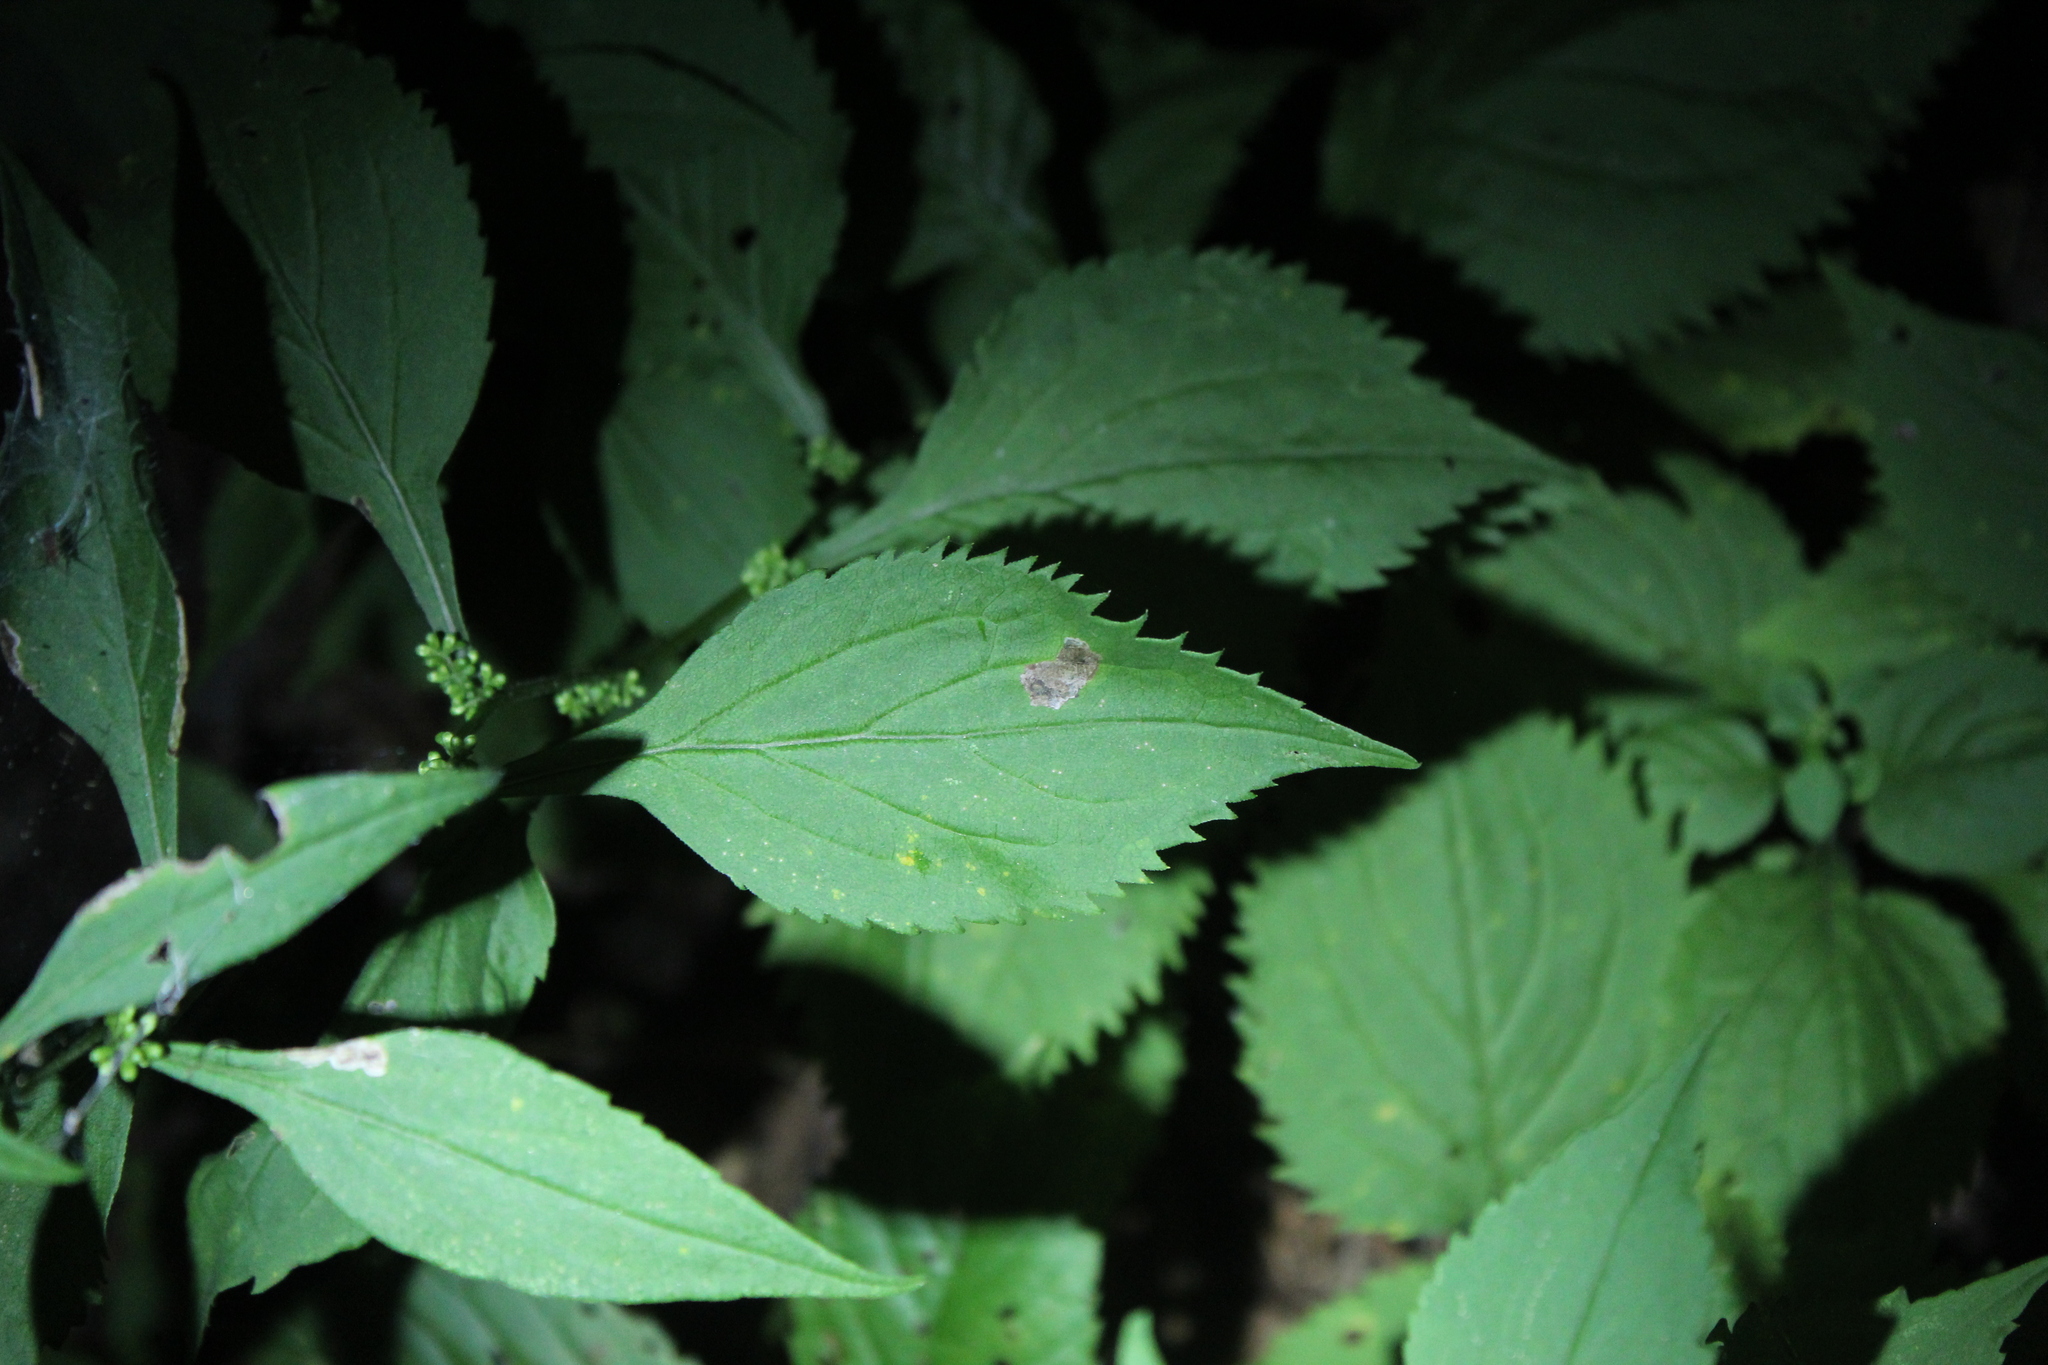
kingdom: Plantae
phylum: Tracheophyta
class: Magnoliopsida
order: Asterales
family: Asteraceae
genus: Solidago
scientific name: Solidago flexicaulis
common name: Zig-zag goldenrod
